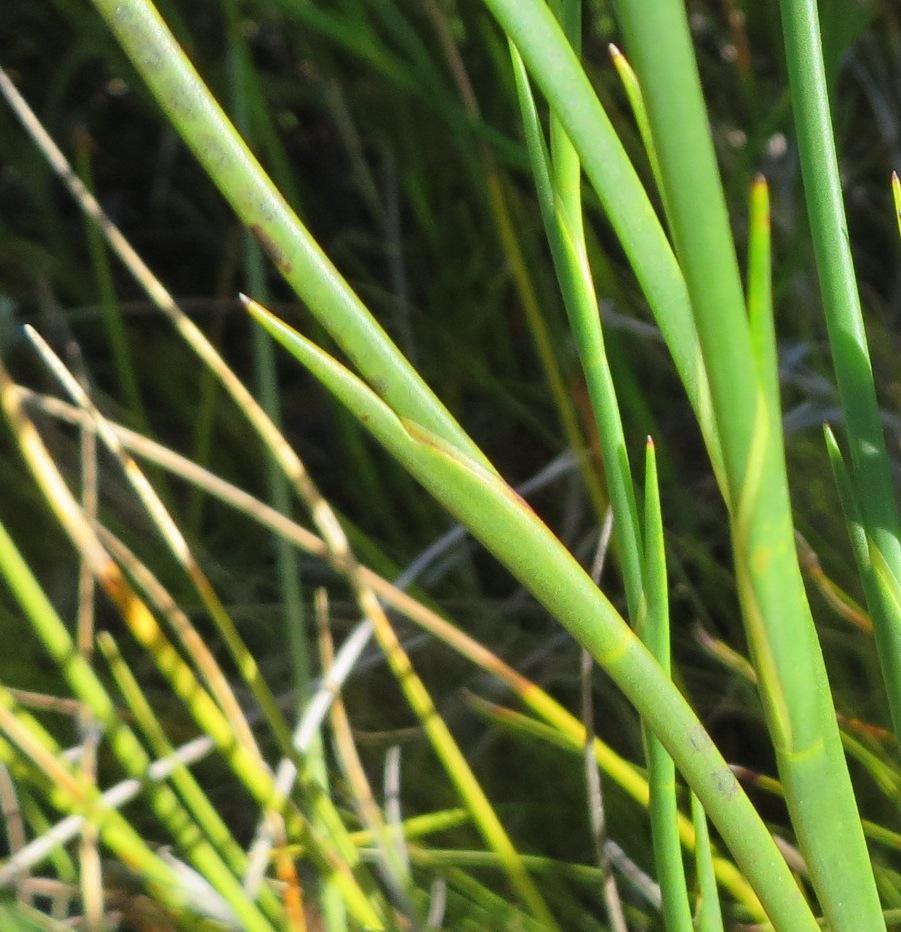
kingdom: Plantae
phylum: Tracheophyta
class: Liliopsida
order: Poales
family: Restionaceae
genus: Platycaulos
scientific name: Platycaulos major
